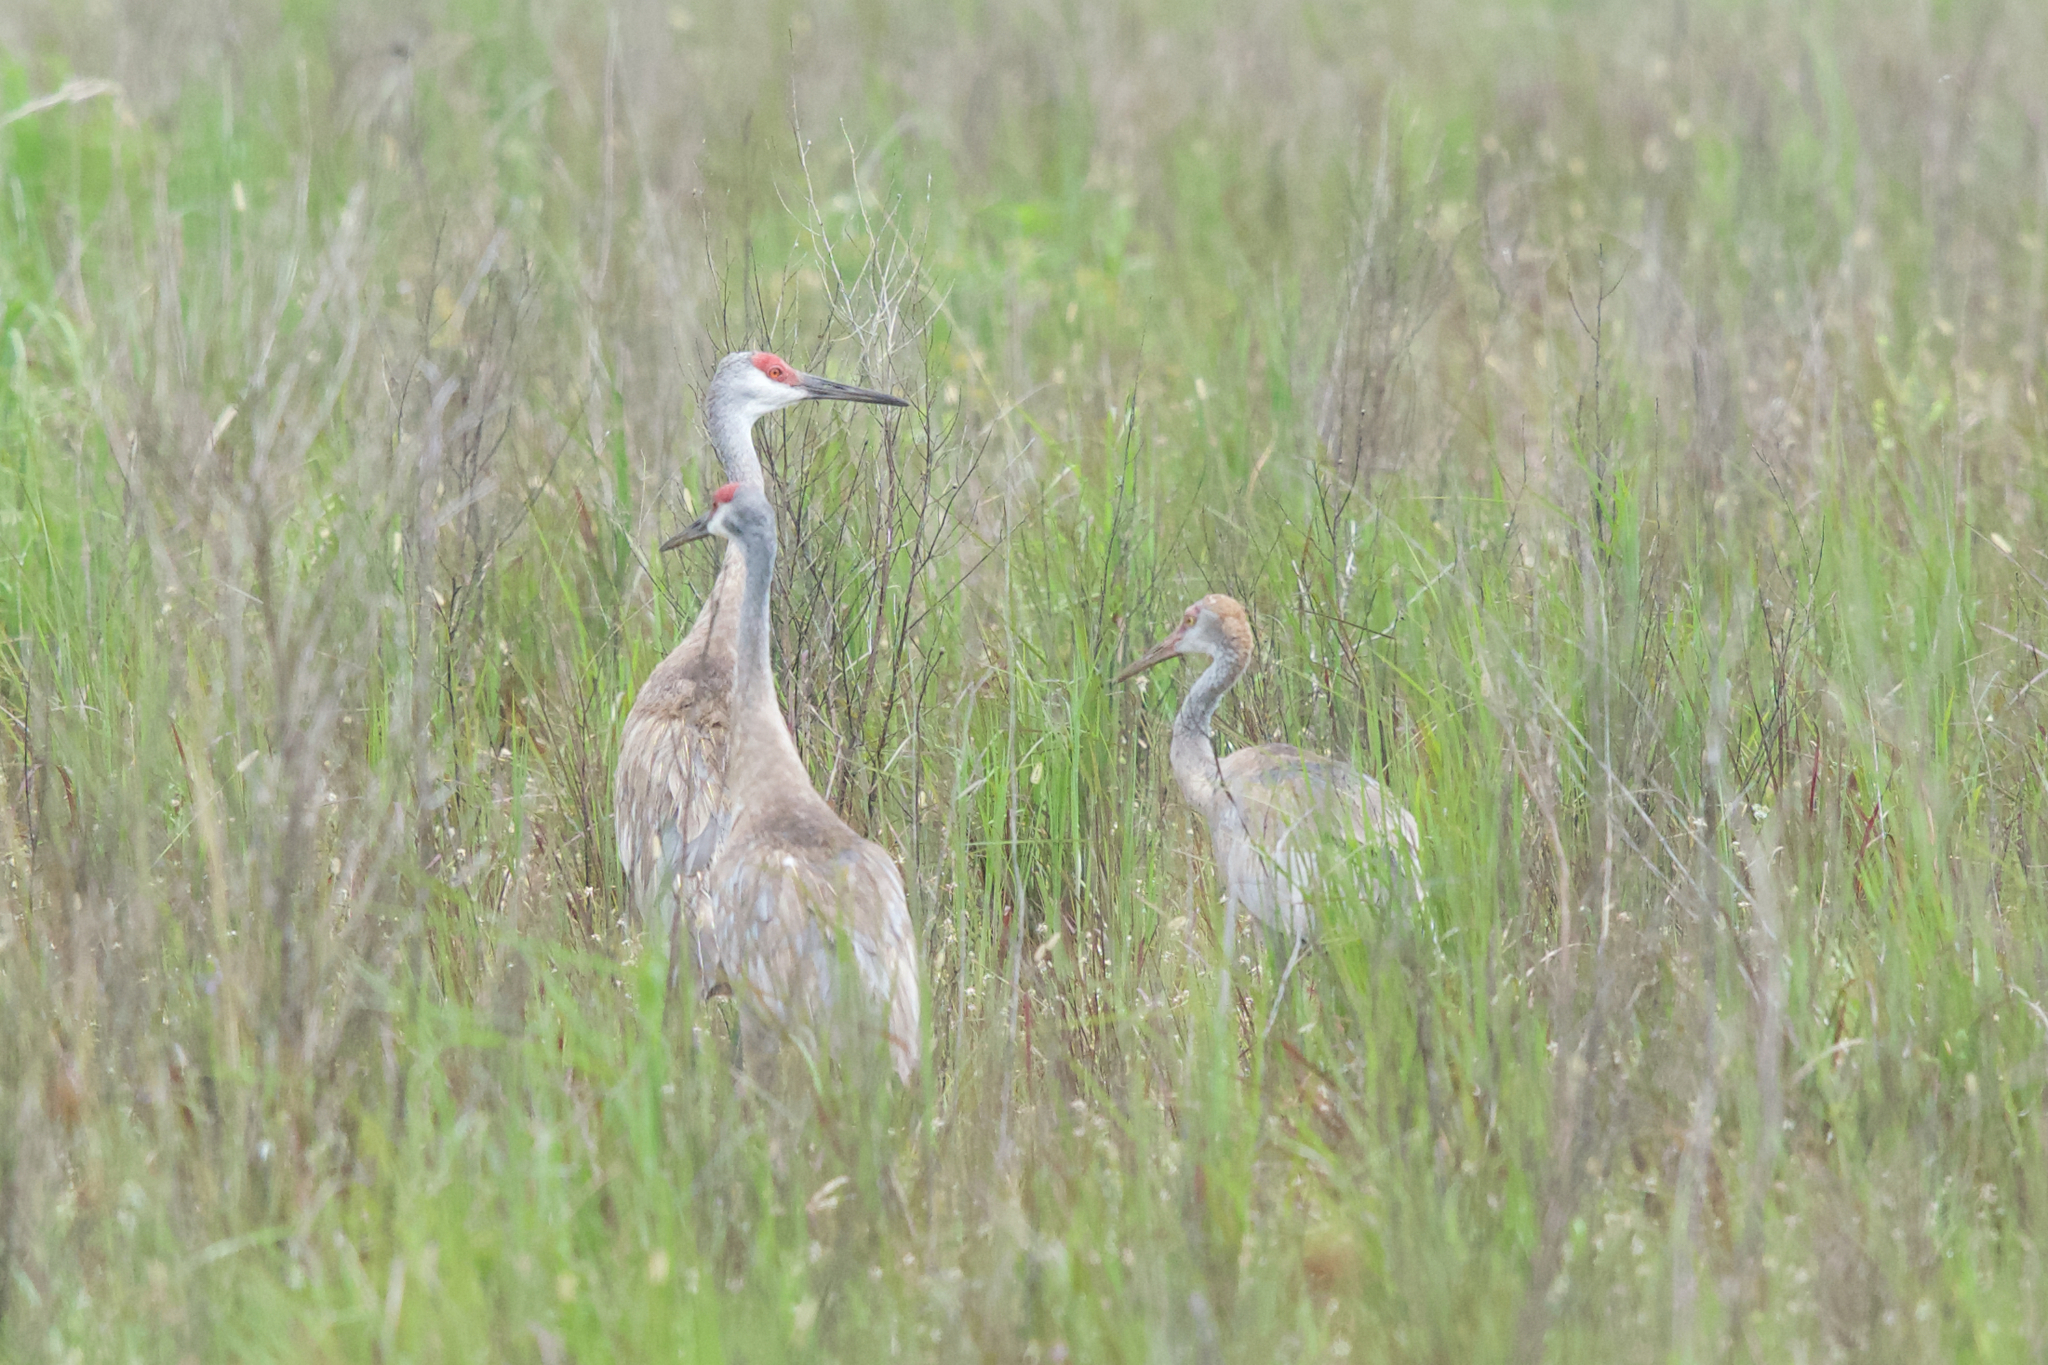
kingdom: Animalia
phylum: Chordata
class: Aves
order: Gruiformes
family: Gruidae
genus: Grus
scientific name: Grus canadensis
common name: Sandhill crane
